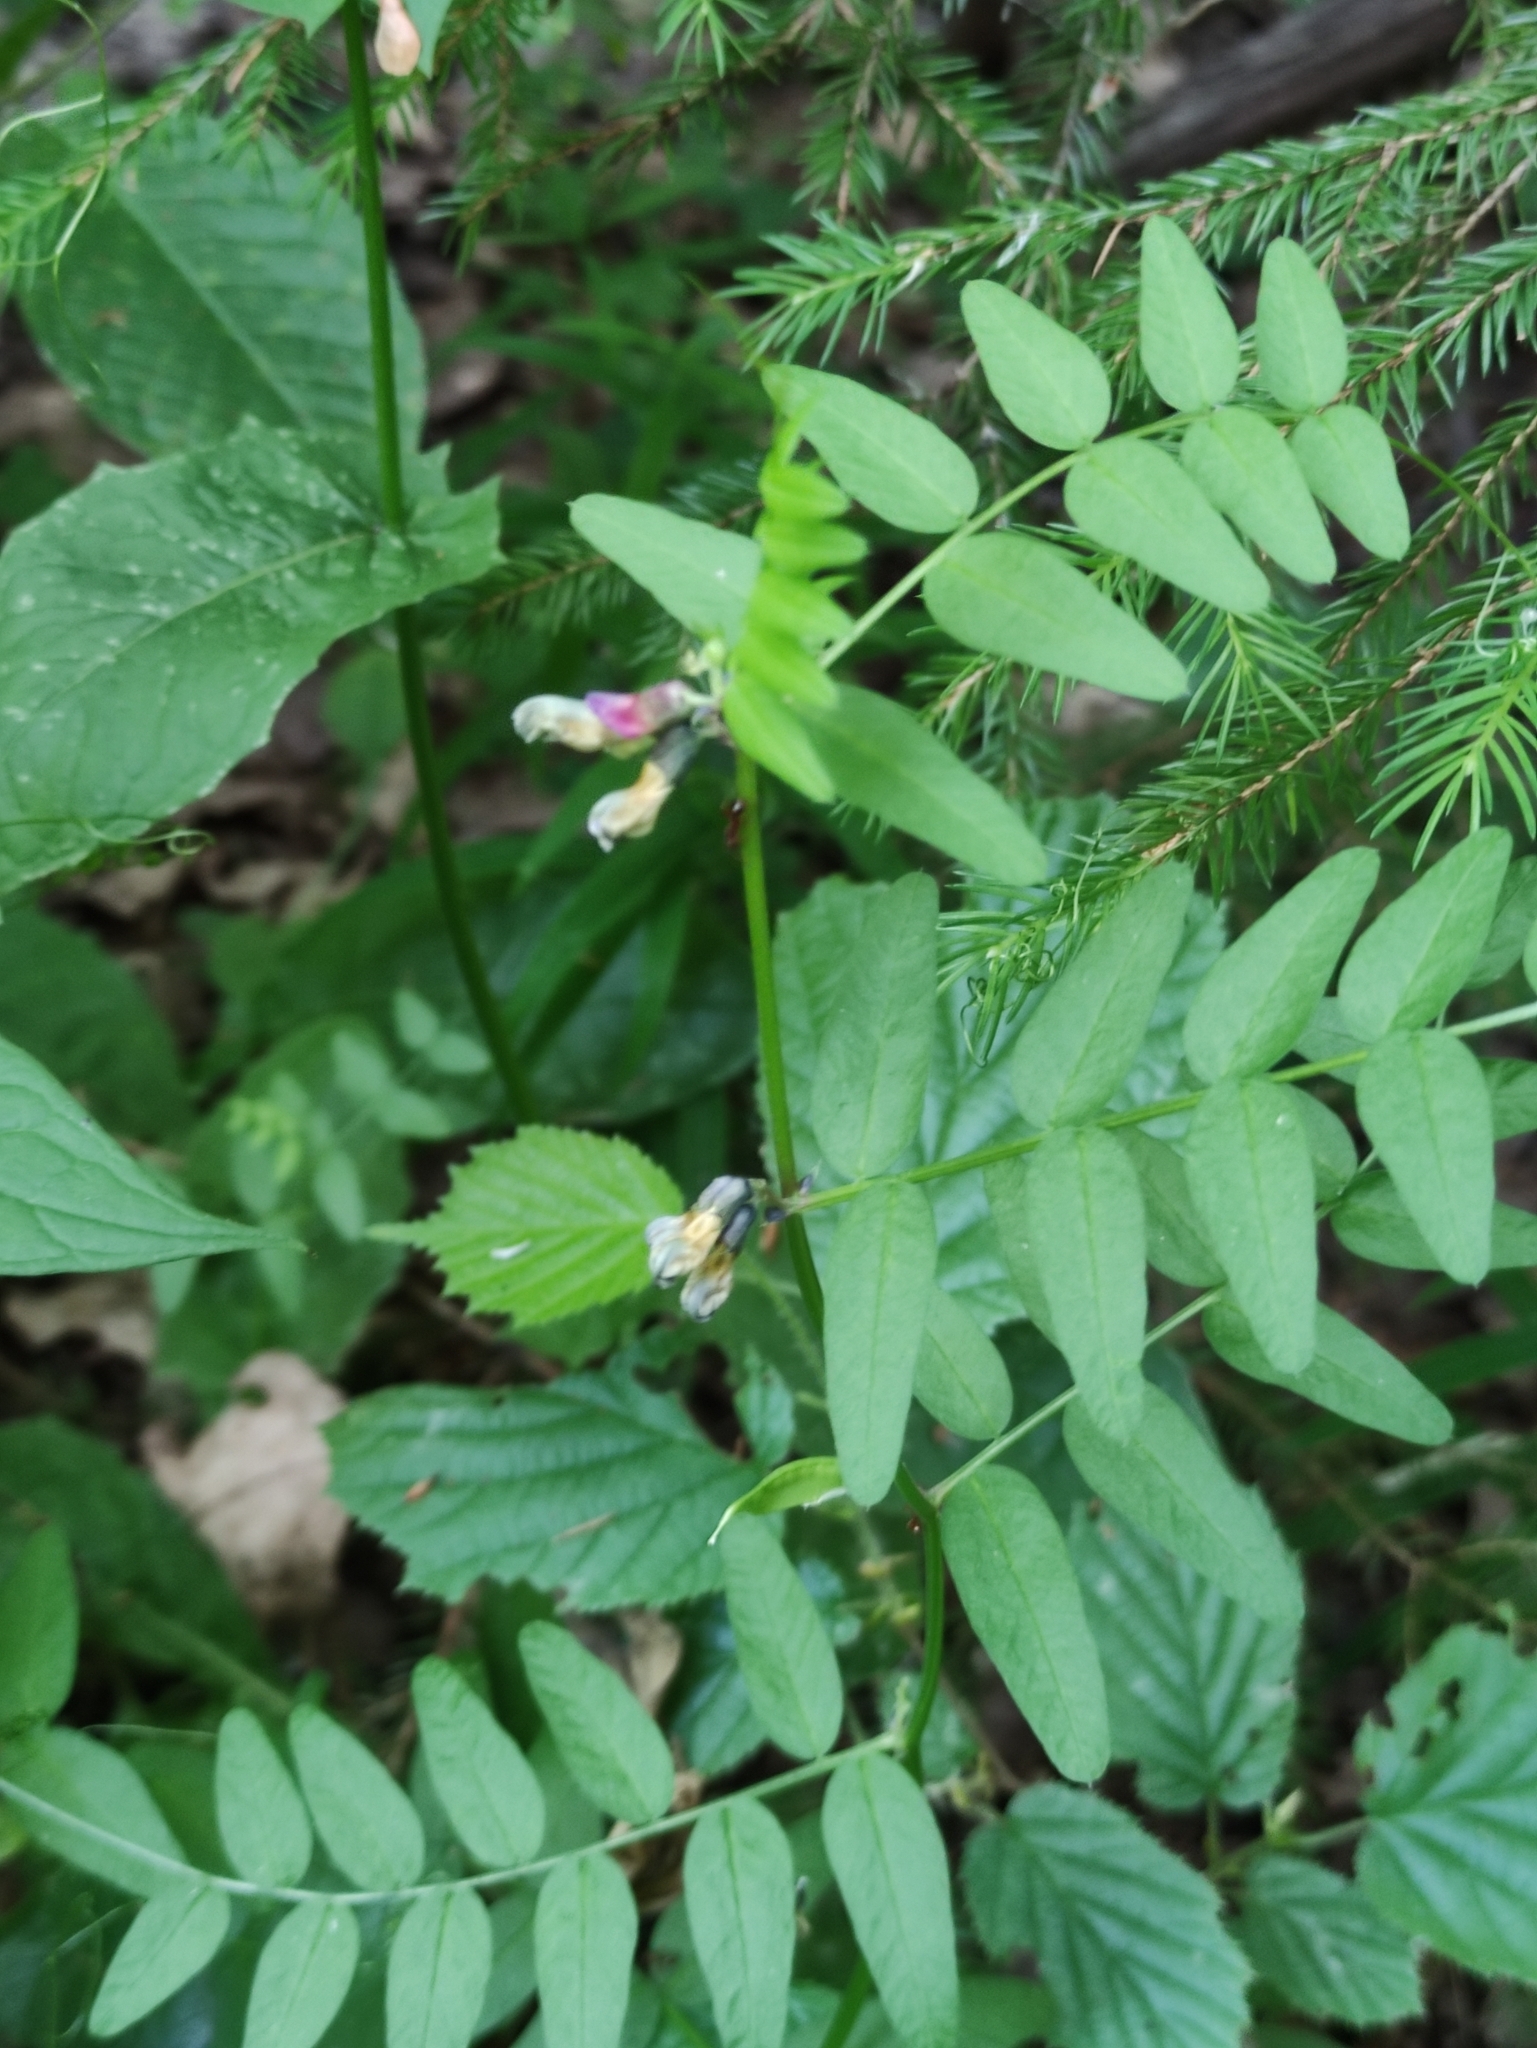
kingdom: Plantae
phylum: Tracheophyta
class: Magnoliopsida
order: Fabales
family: Fabaceae
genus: Vicia
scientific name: Vicia sepium
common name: Bush vetch
